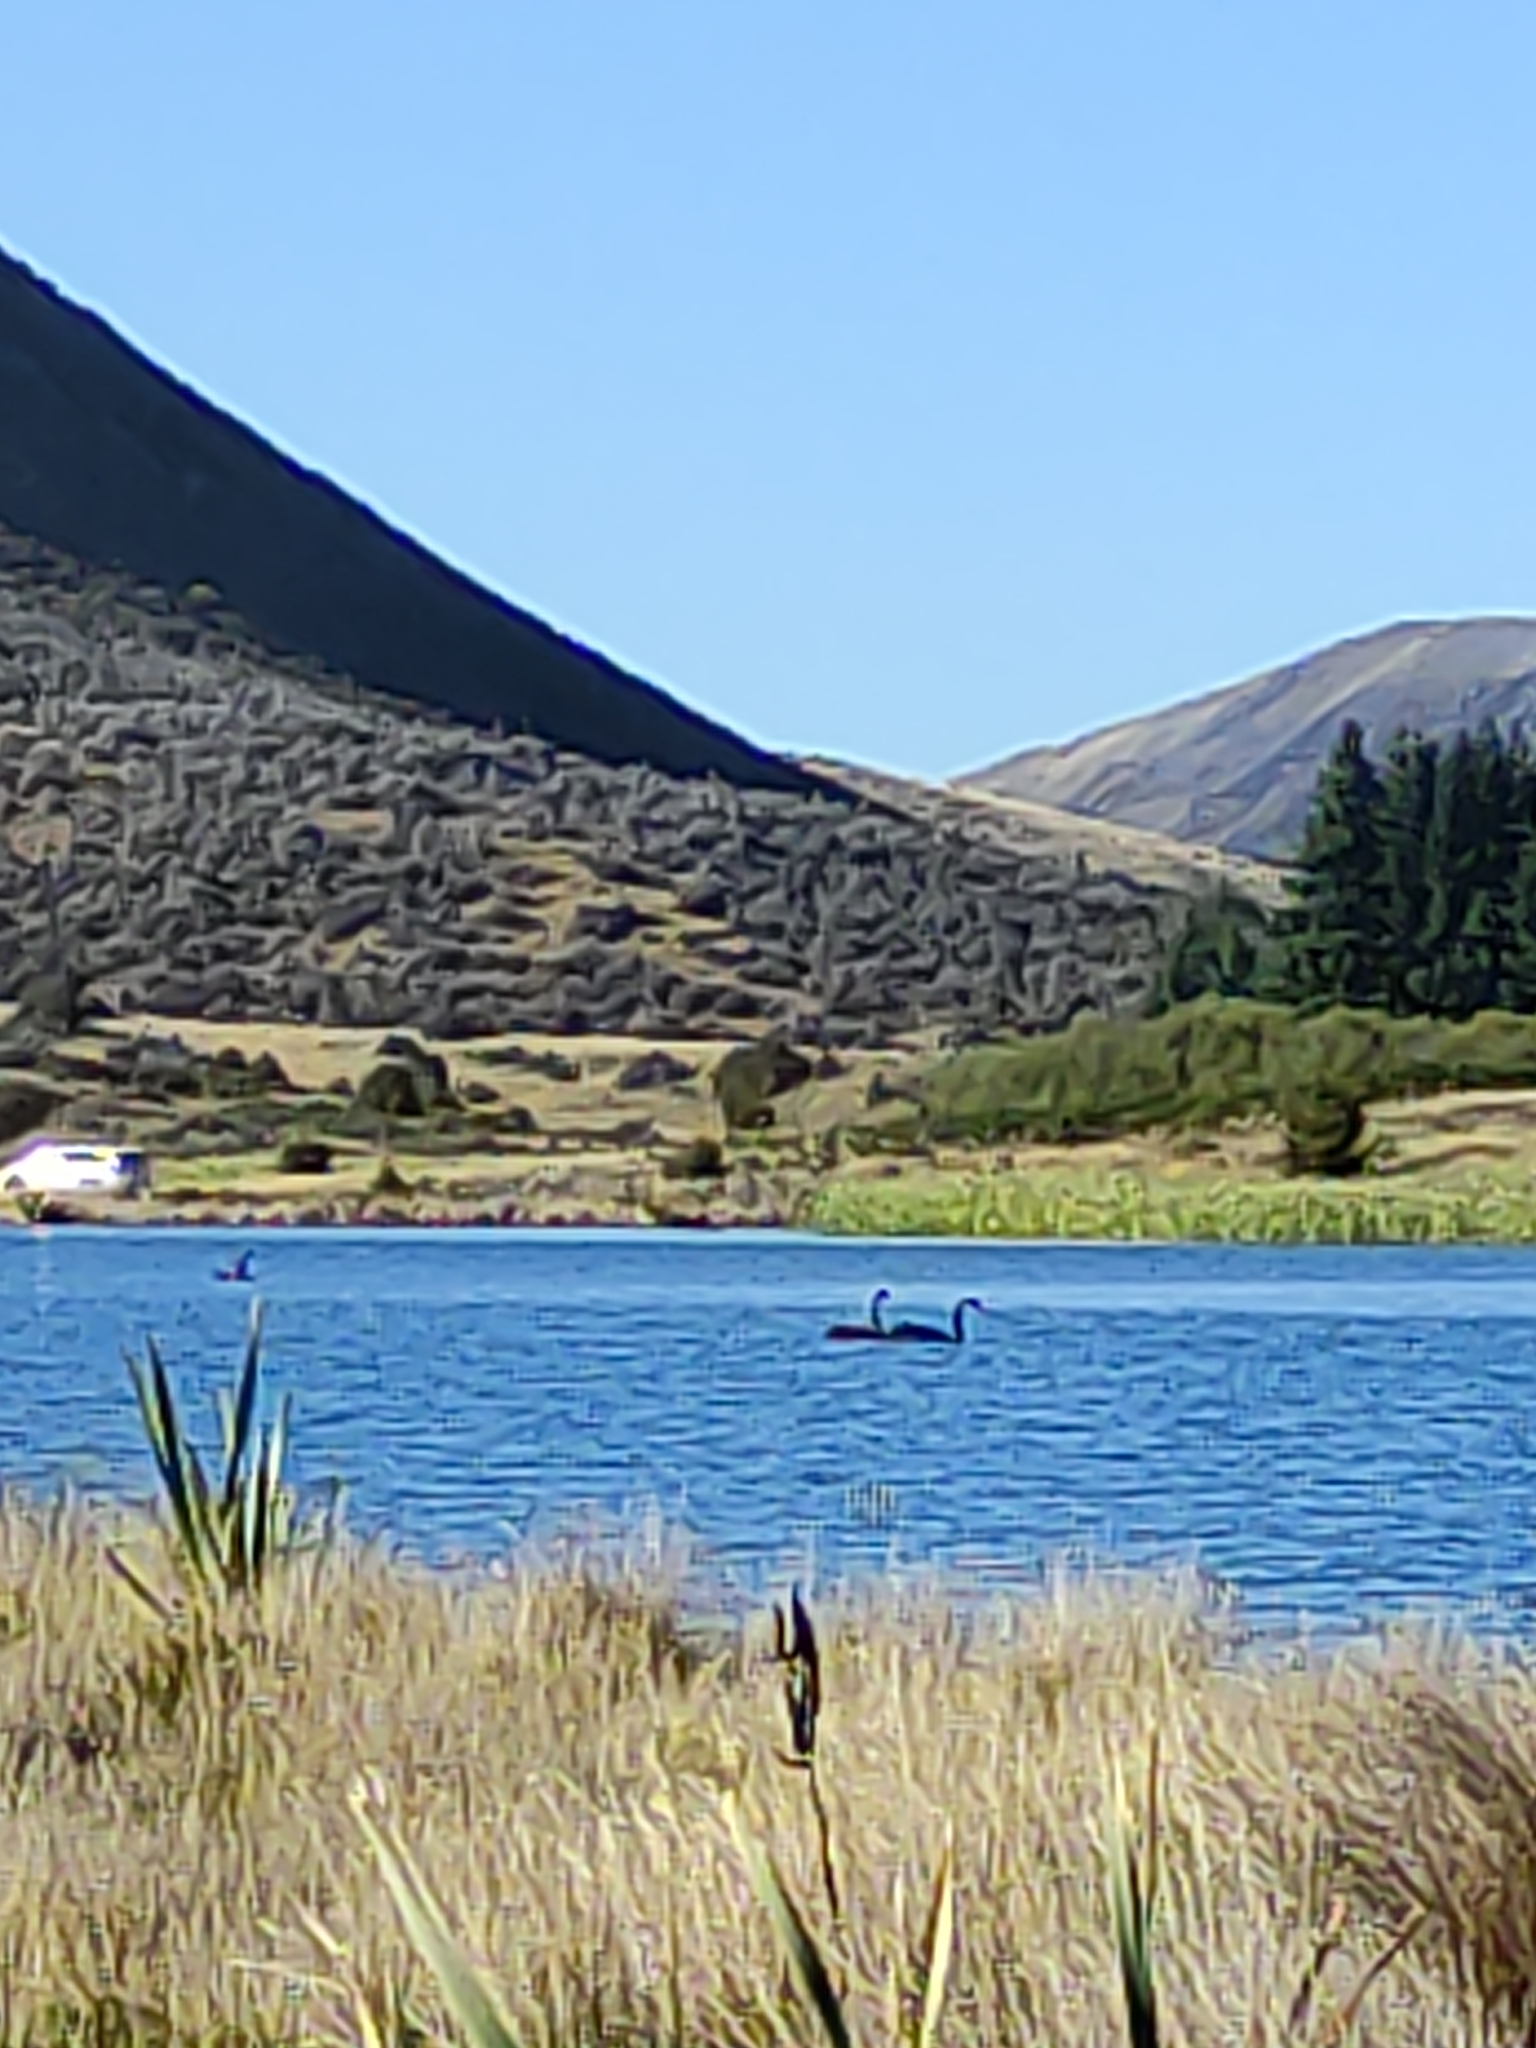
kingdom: Animalia
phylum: Chordata
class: Aves
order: Anseriformes
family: Anatidae
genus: Cygnus
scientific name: Cygnus atratus
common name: Black swan
